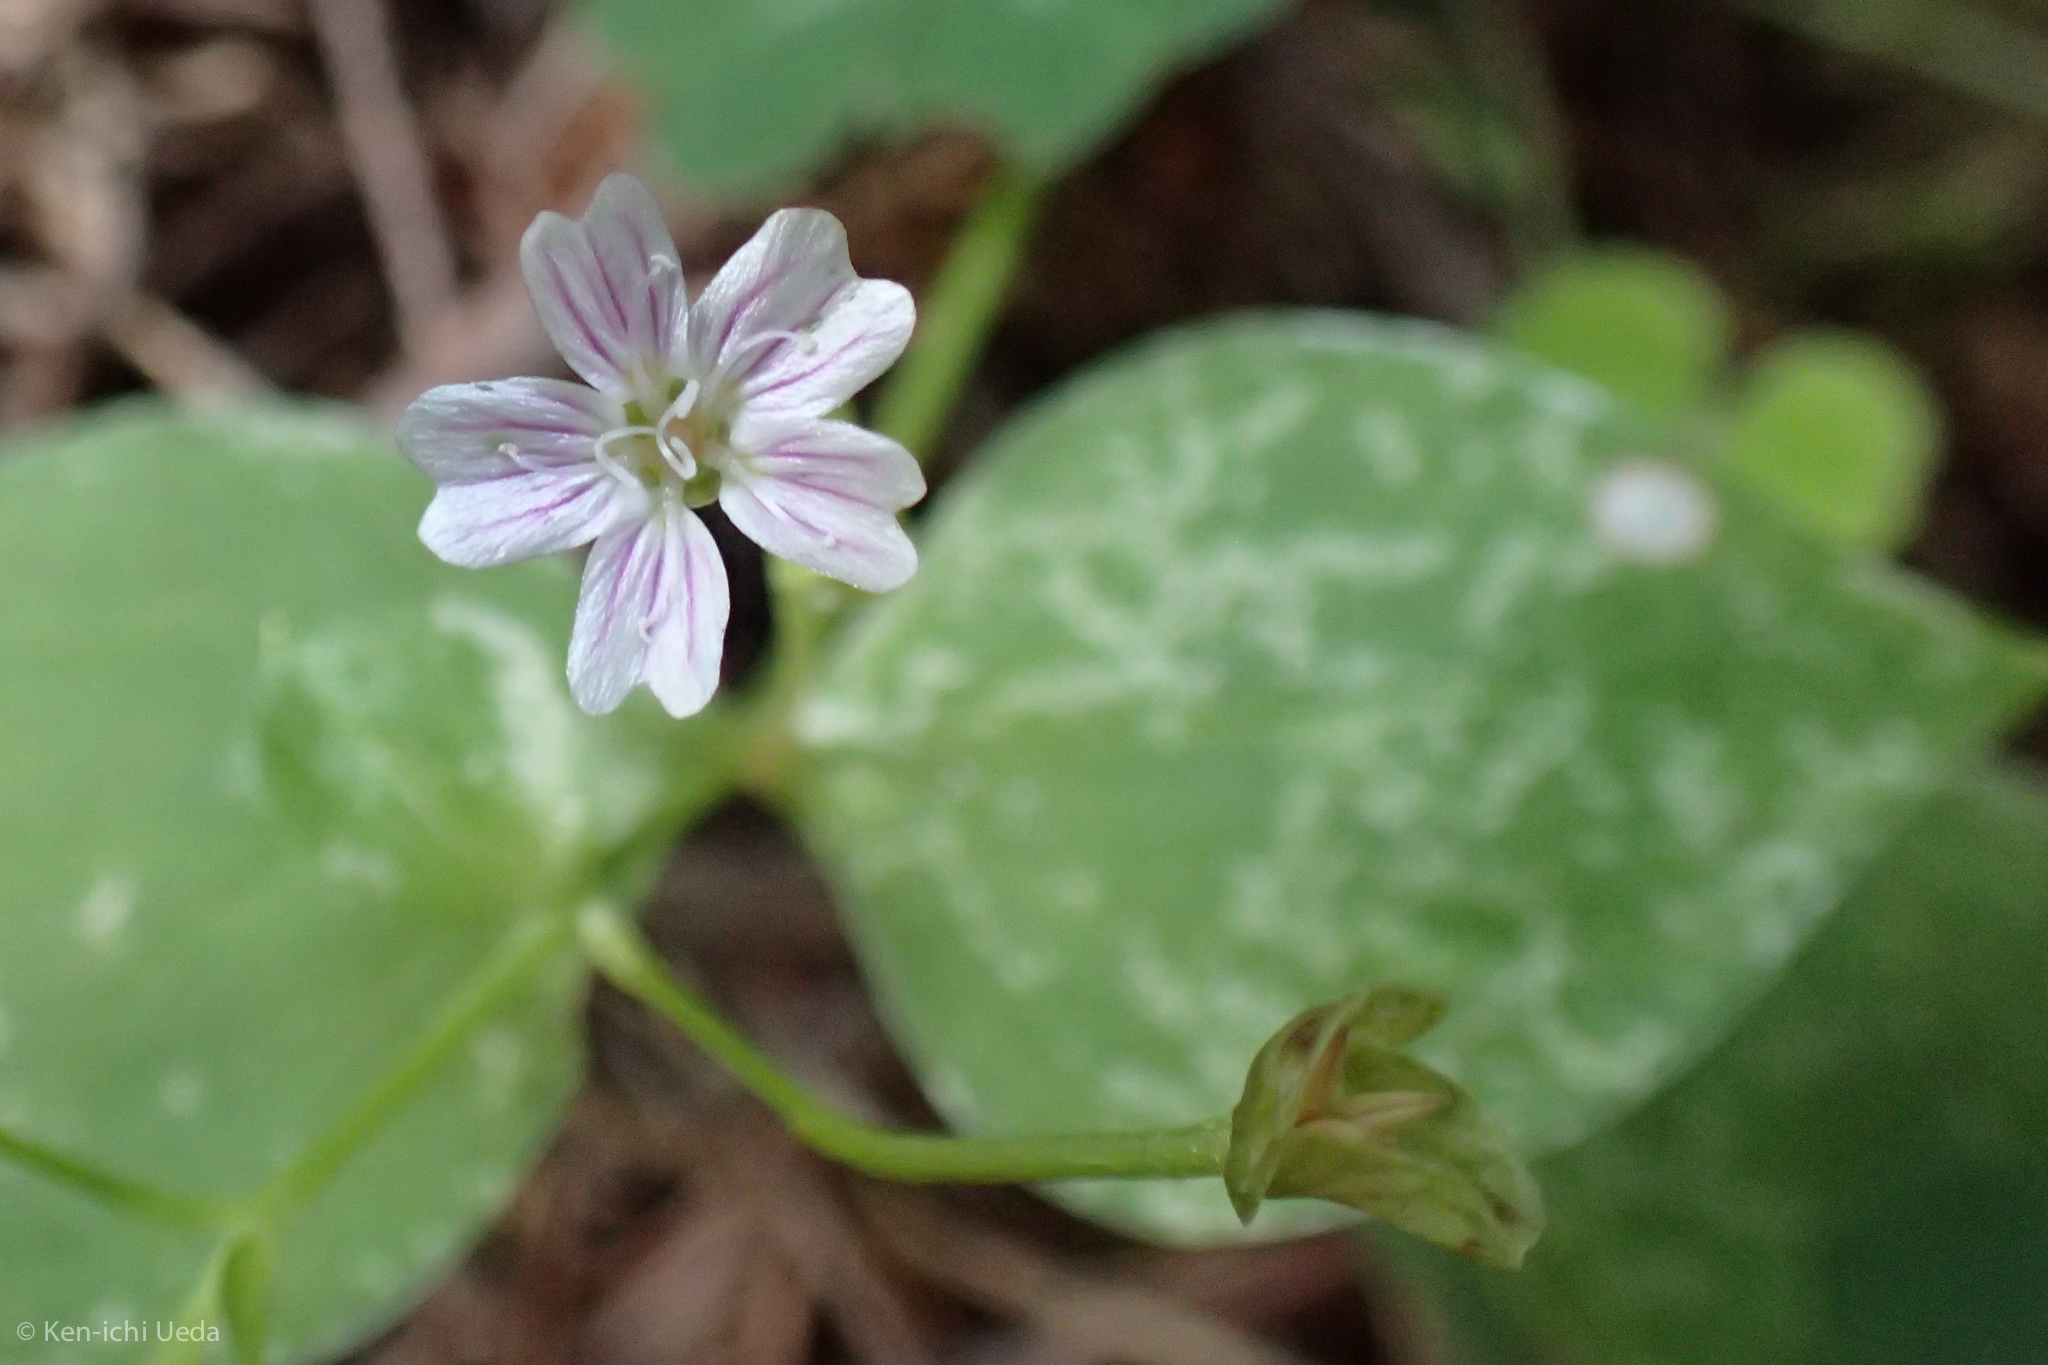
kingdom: Plantae
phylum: Tracheophyta
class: Magnoliopsida
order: Caryophyllales
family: Montiaceae
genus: Claytonia
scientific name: Claytonia sibirica
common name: Pink purslane
